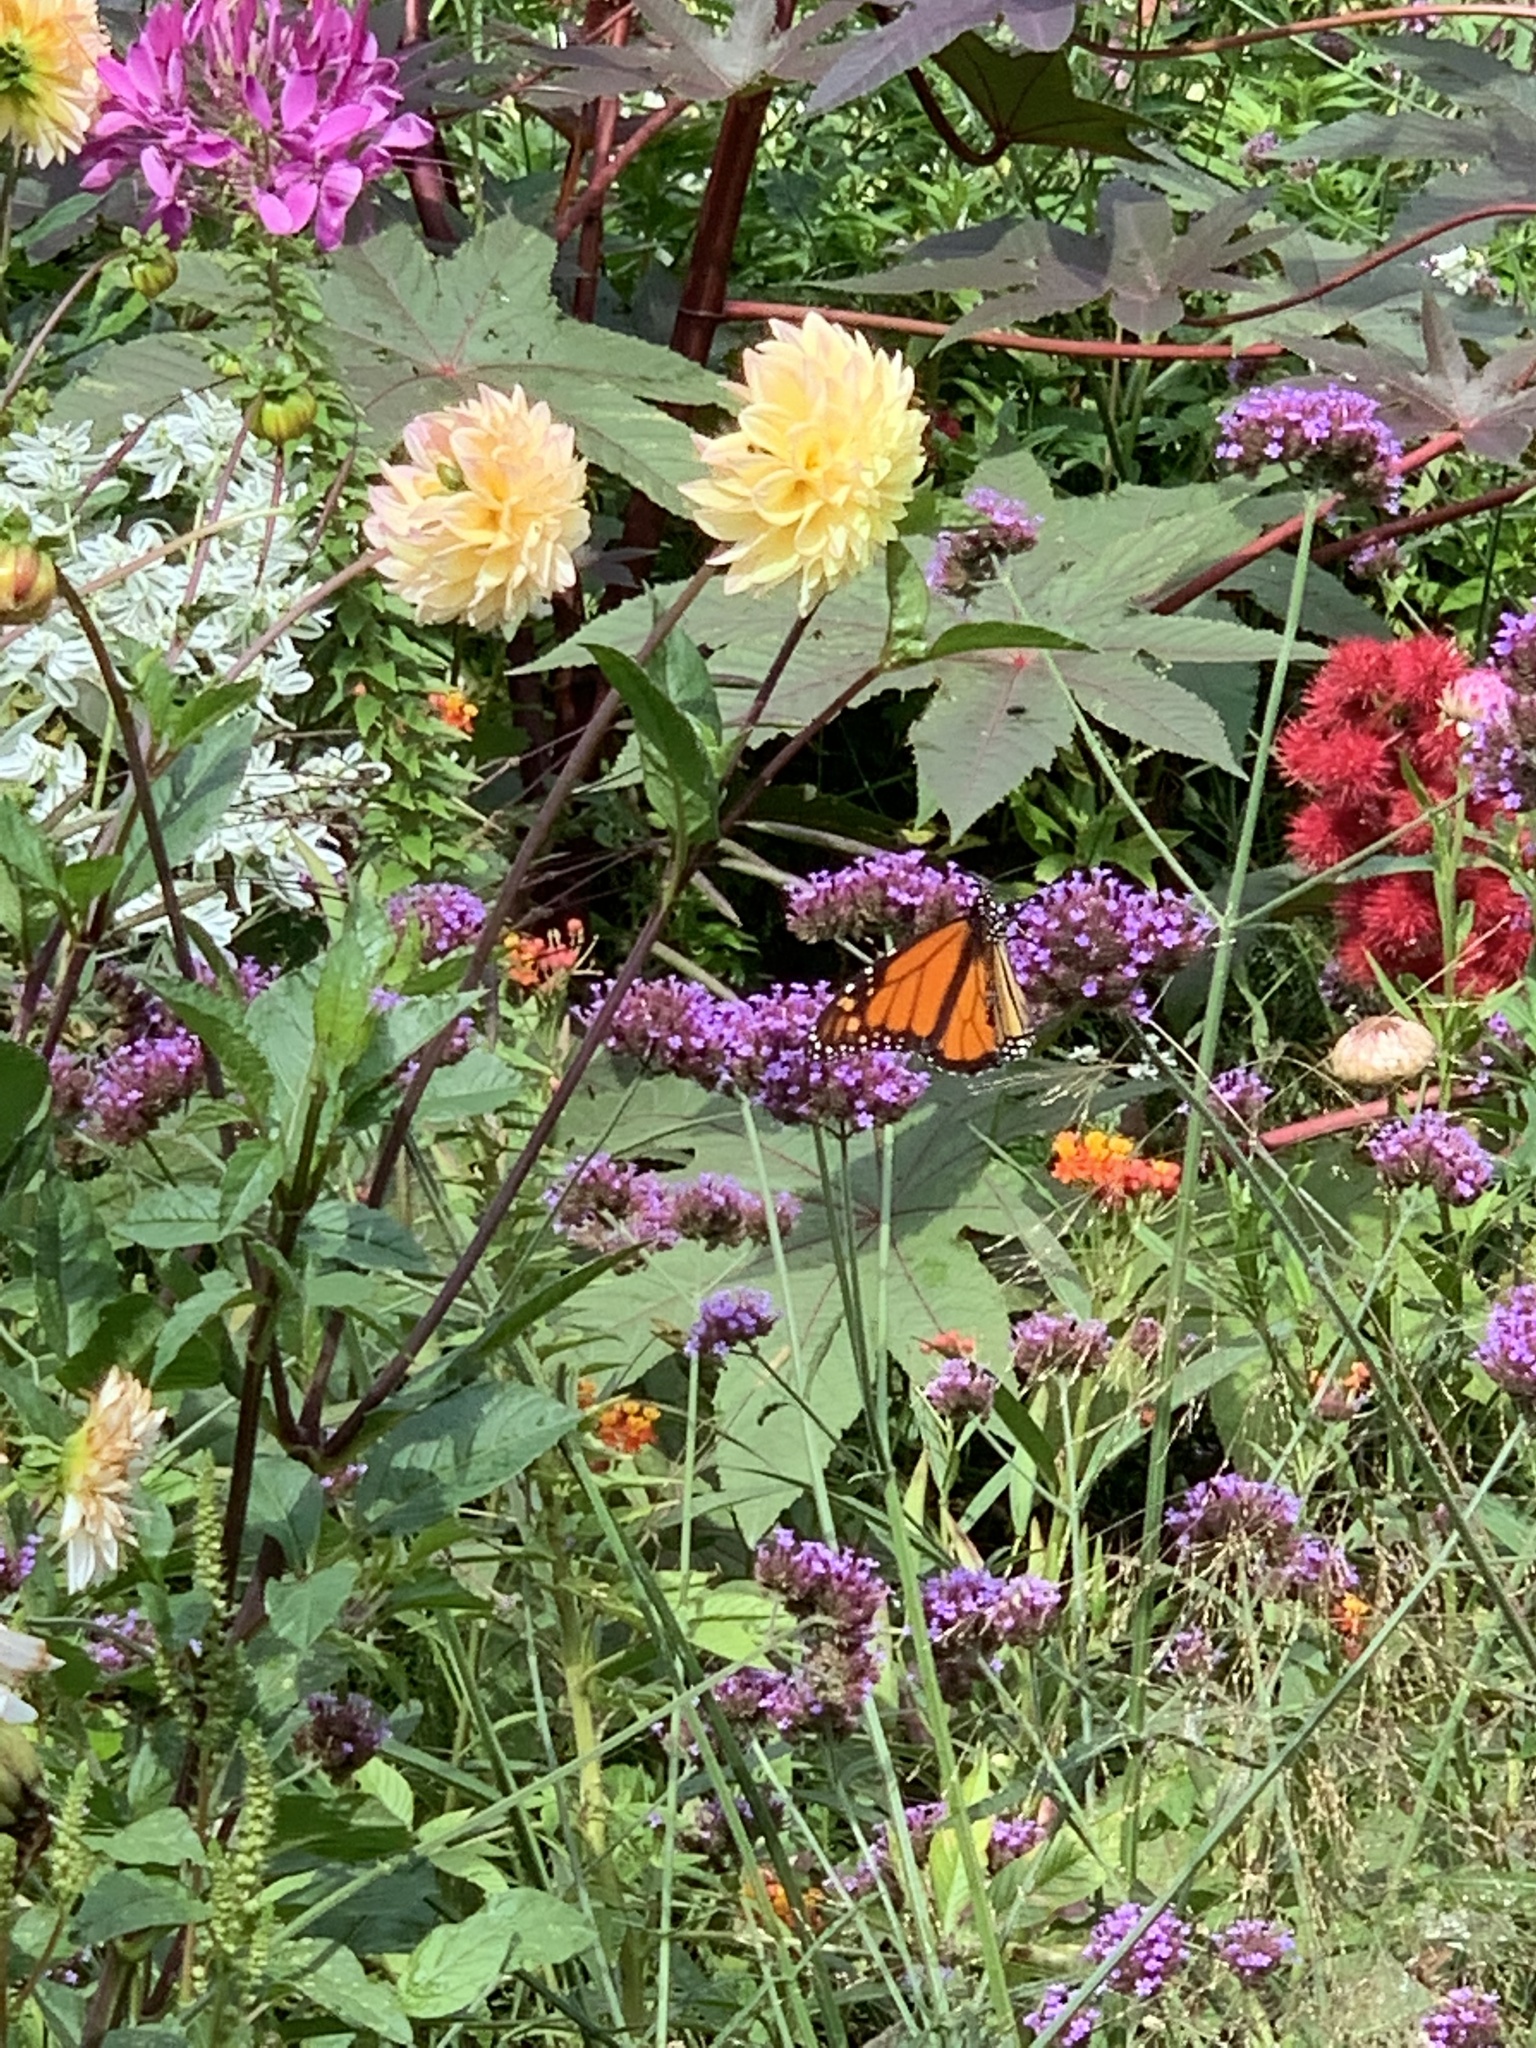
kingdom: Animalia
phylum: Arthropoda
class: Insecta
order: Lepidoptera
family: Nymphalidae
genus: Danaus
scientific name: Danaus plexippus
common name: Monarch
